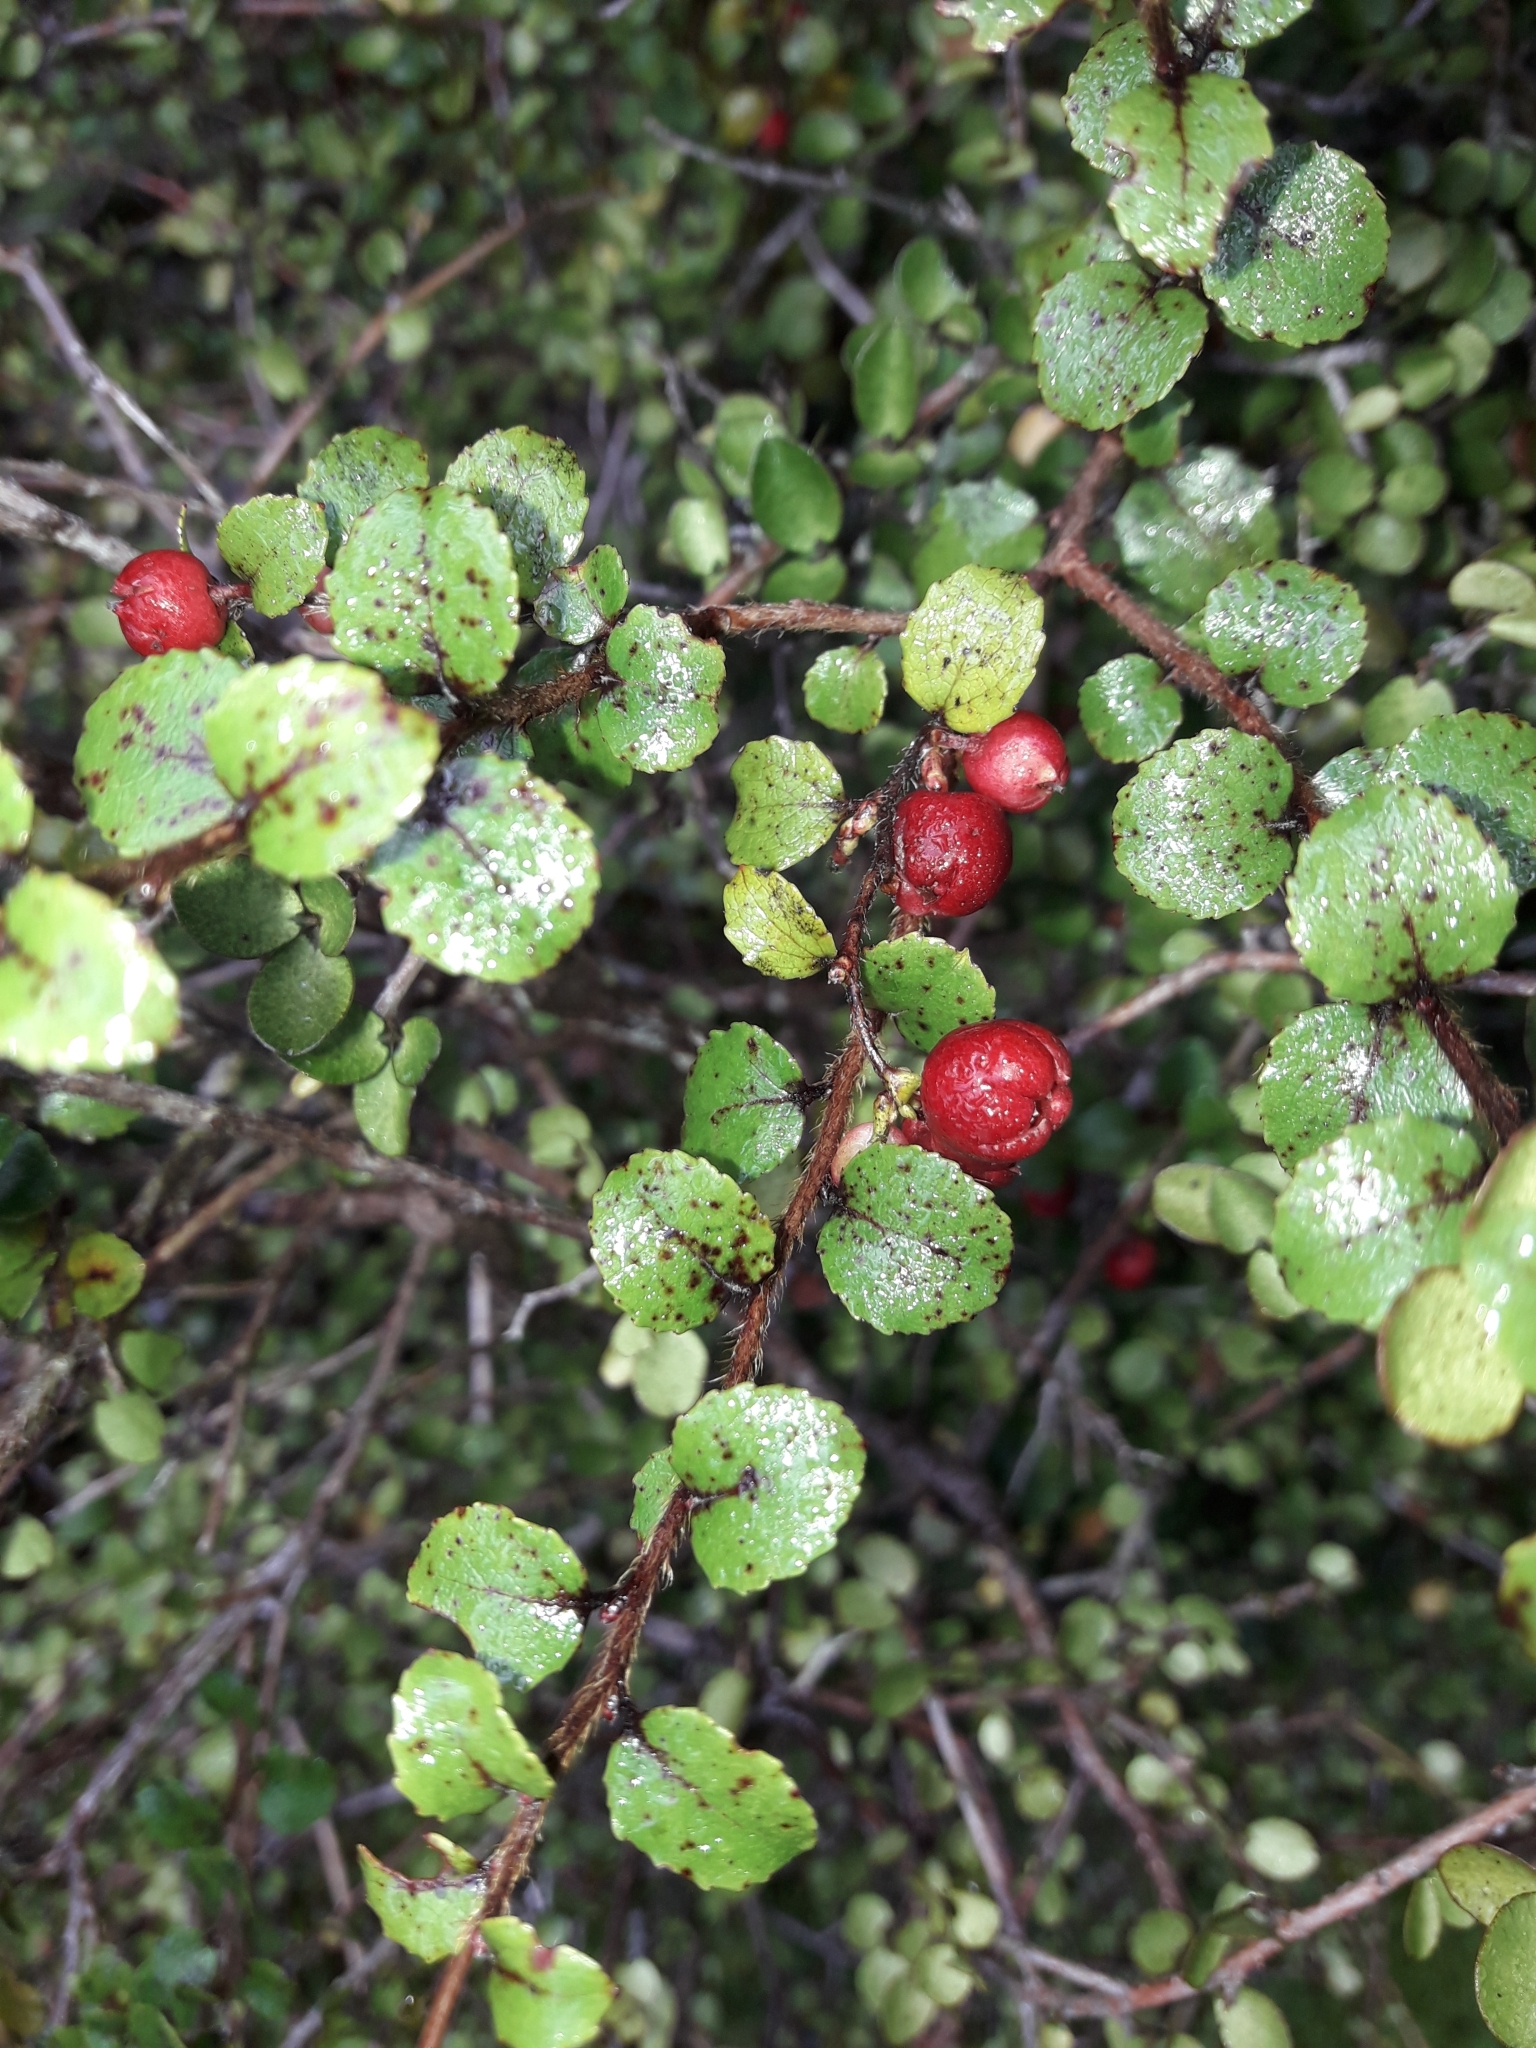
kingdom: Plantae
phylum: Tracheophyta
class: Magnoliopsida
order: Ericales
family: Ericaceae
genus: Gaultheria
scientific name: Gaultheria antipoda
